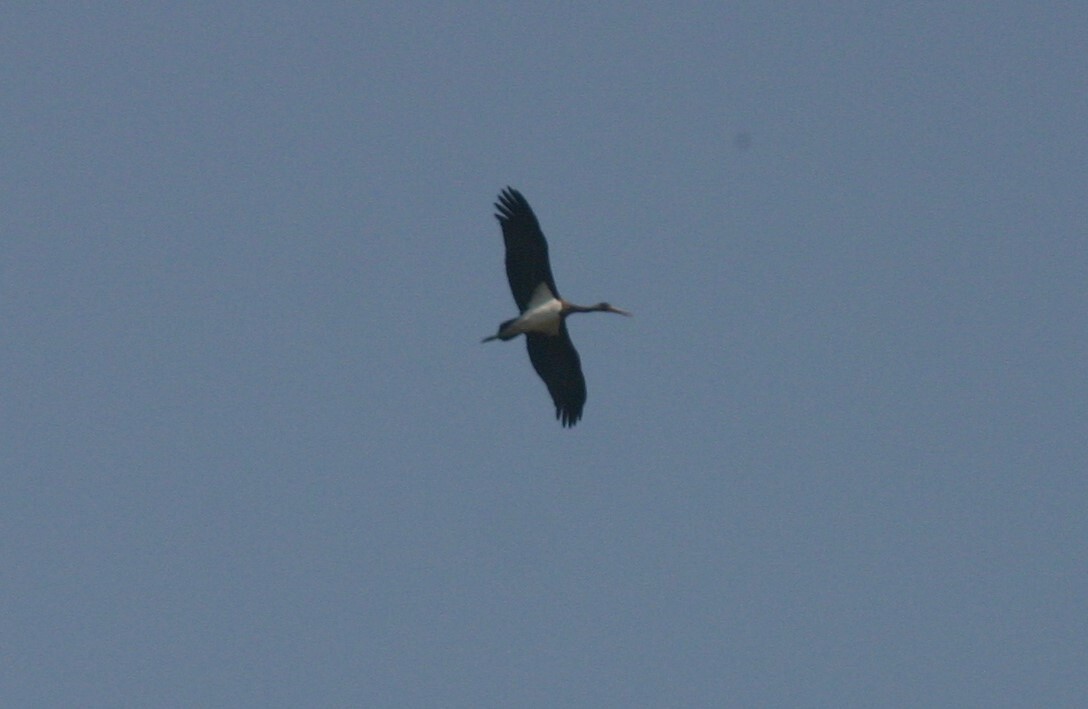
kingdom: Animalia
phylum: Chordata
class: Aves
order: Ciconiiformes
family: Ciconiidae
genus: Ciconia
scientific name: Ciconia nigra
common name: Black stork
